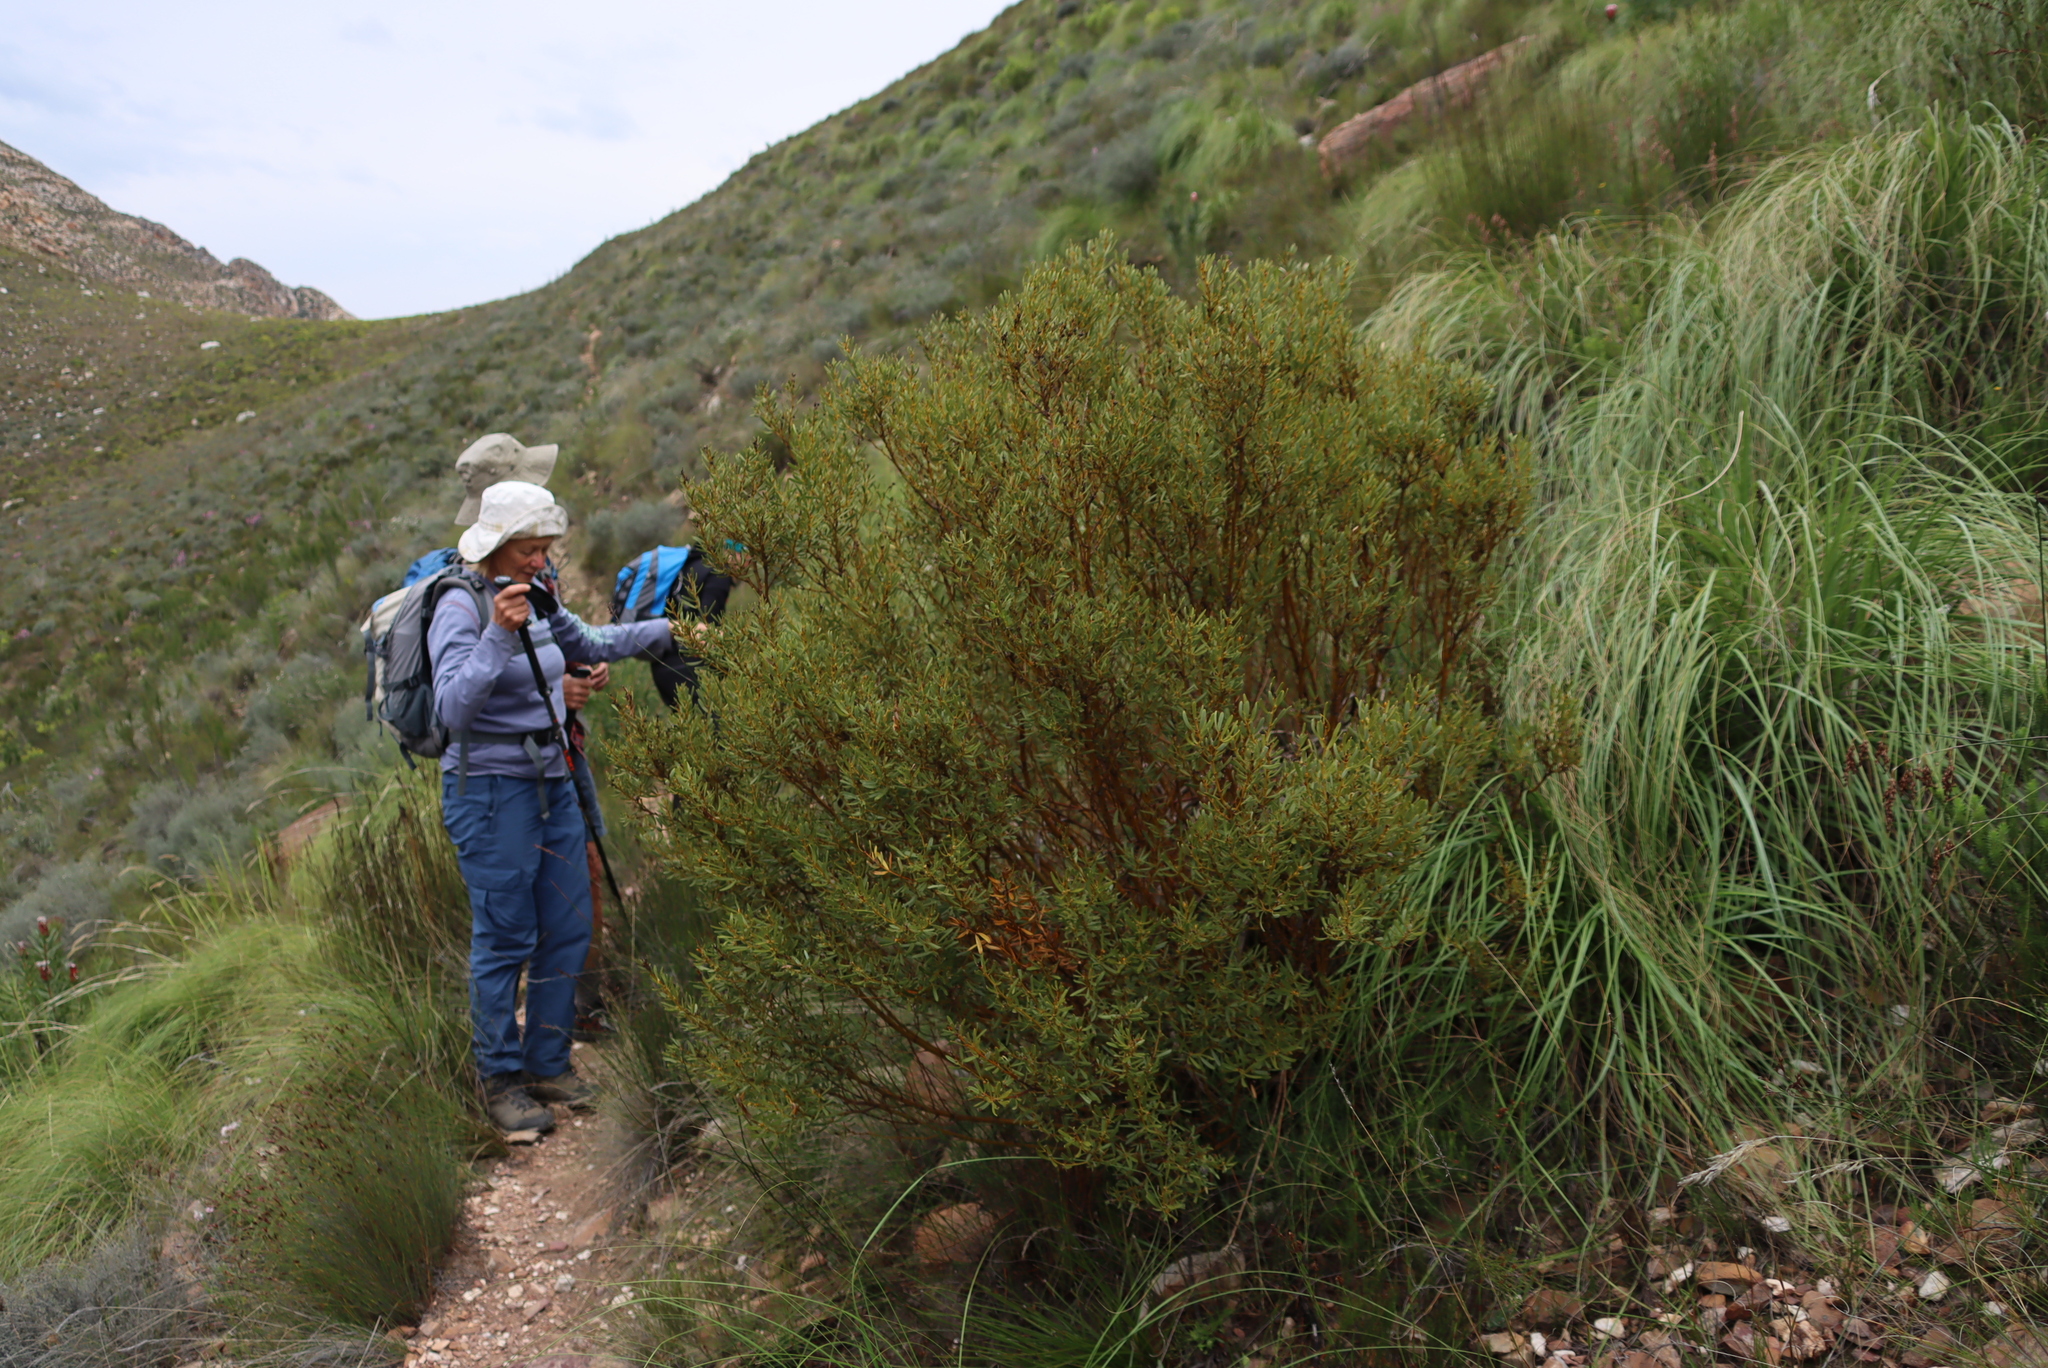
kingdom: Plantae
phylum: Tracheophyta
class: Magnoliopsida
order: Fabales
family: Fabaceae
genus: Cyclopia
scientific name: Cyclopia intermedia
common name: Mountain tea
